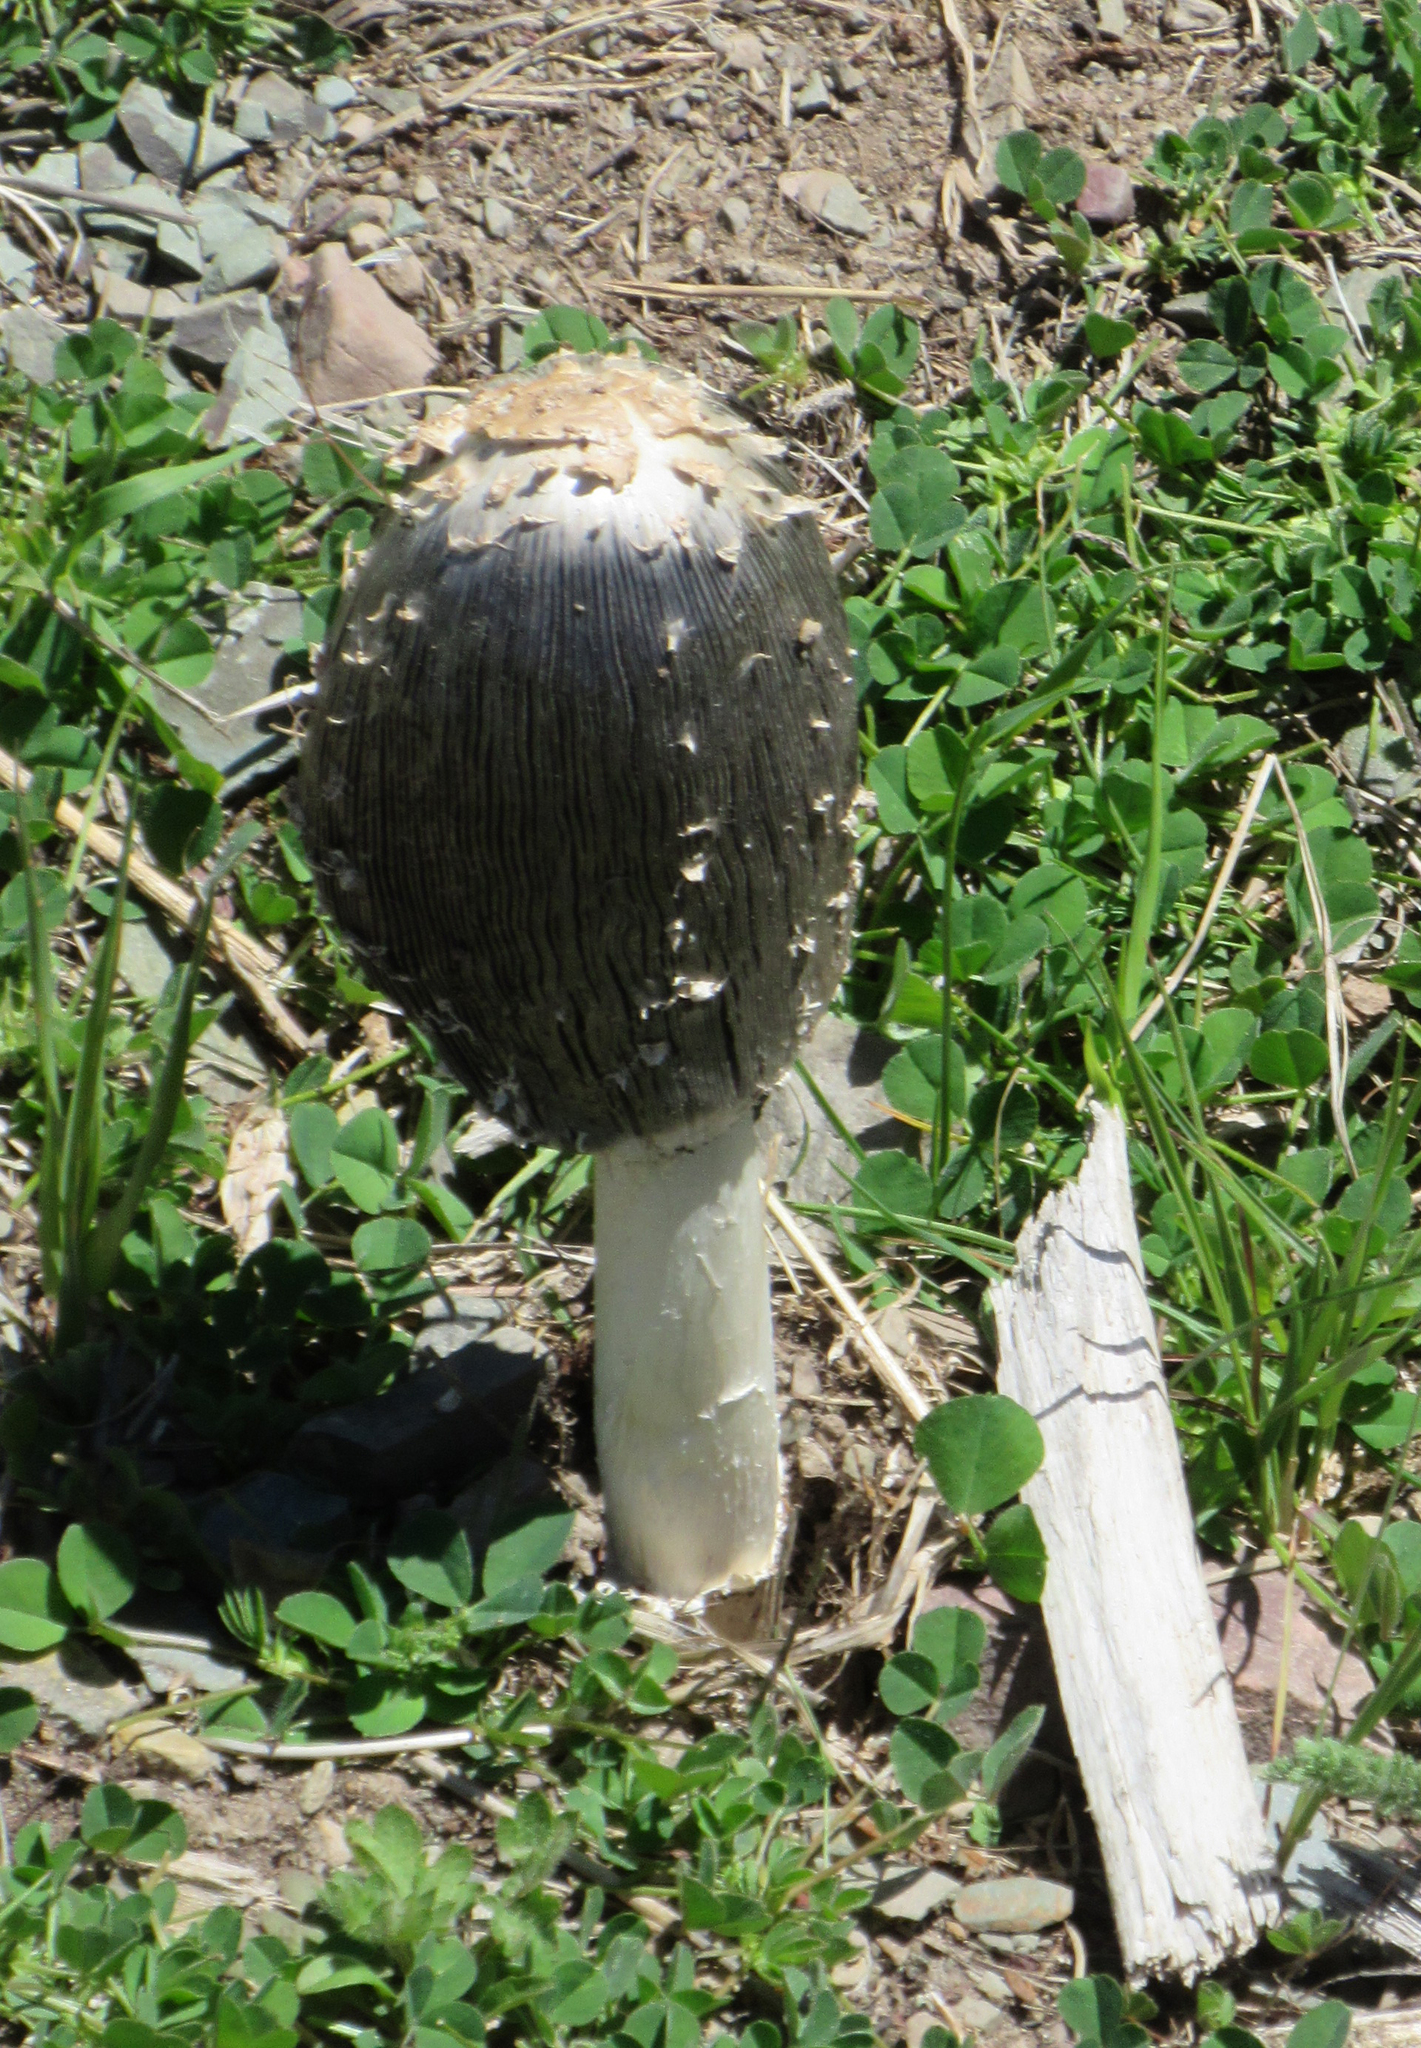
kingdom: Fungi
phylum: Basidiomycota
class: Agaricomycetes
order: Agaricales
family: Agaricaceae
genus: Coprinus
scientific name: Coprinus comatus
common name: Lawyer's wig
